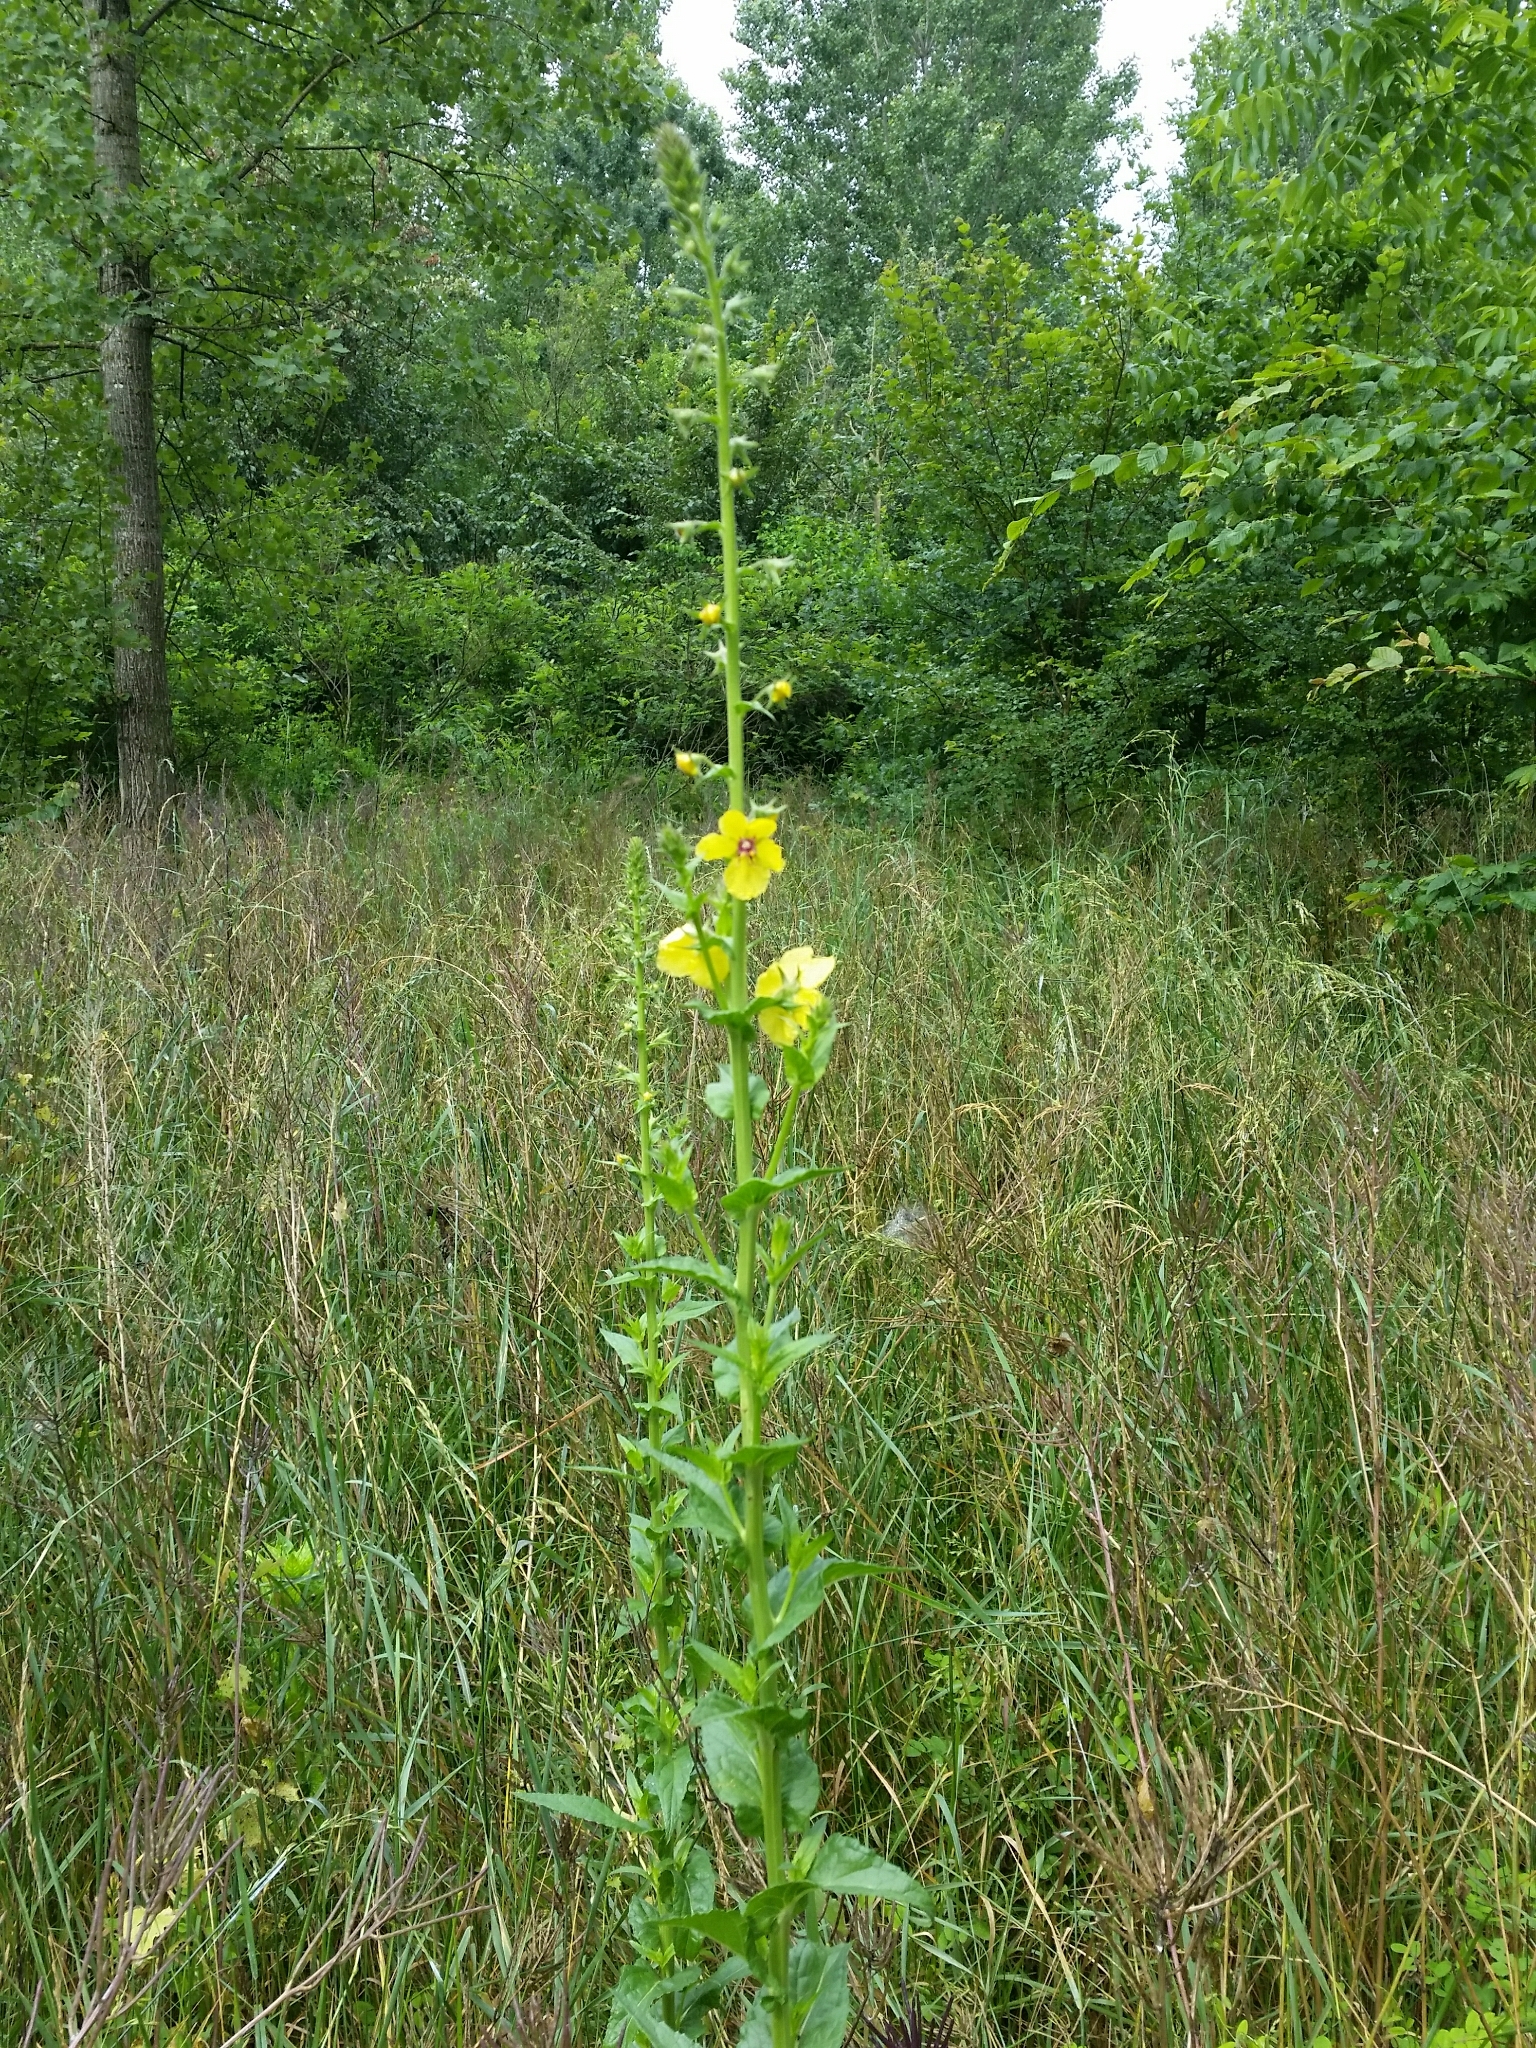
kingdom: Plantae
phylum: Tracheophyta
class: Magnoliopsida
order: Lamiales
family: Scrophulariaceae
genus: Verbascum
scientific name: Verbascum blattaria
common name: Moth mullein
